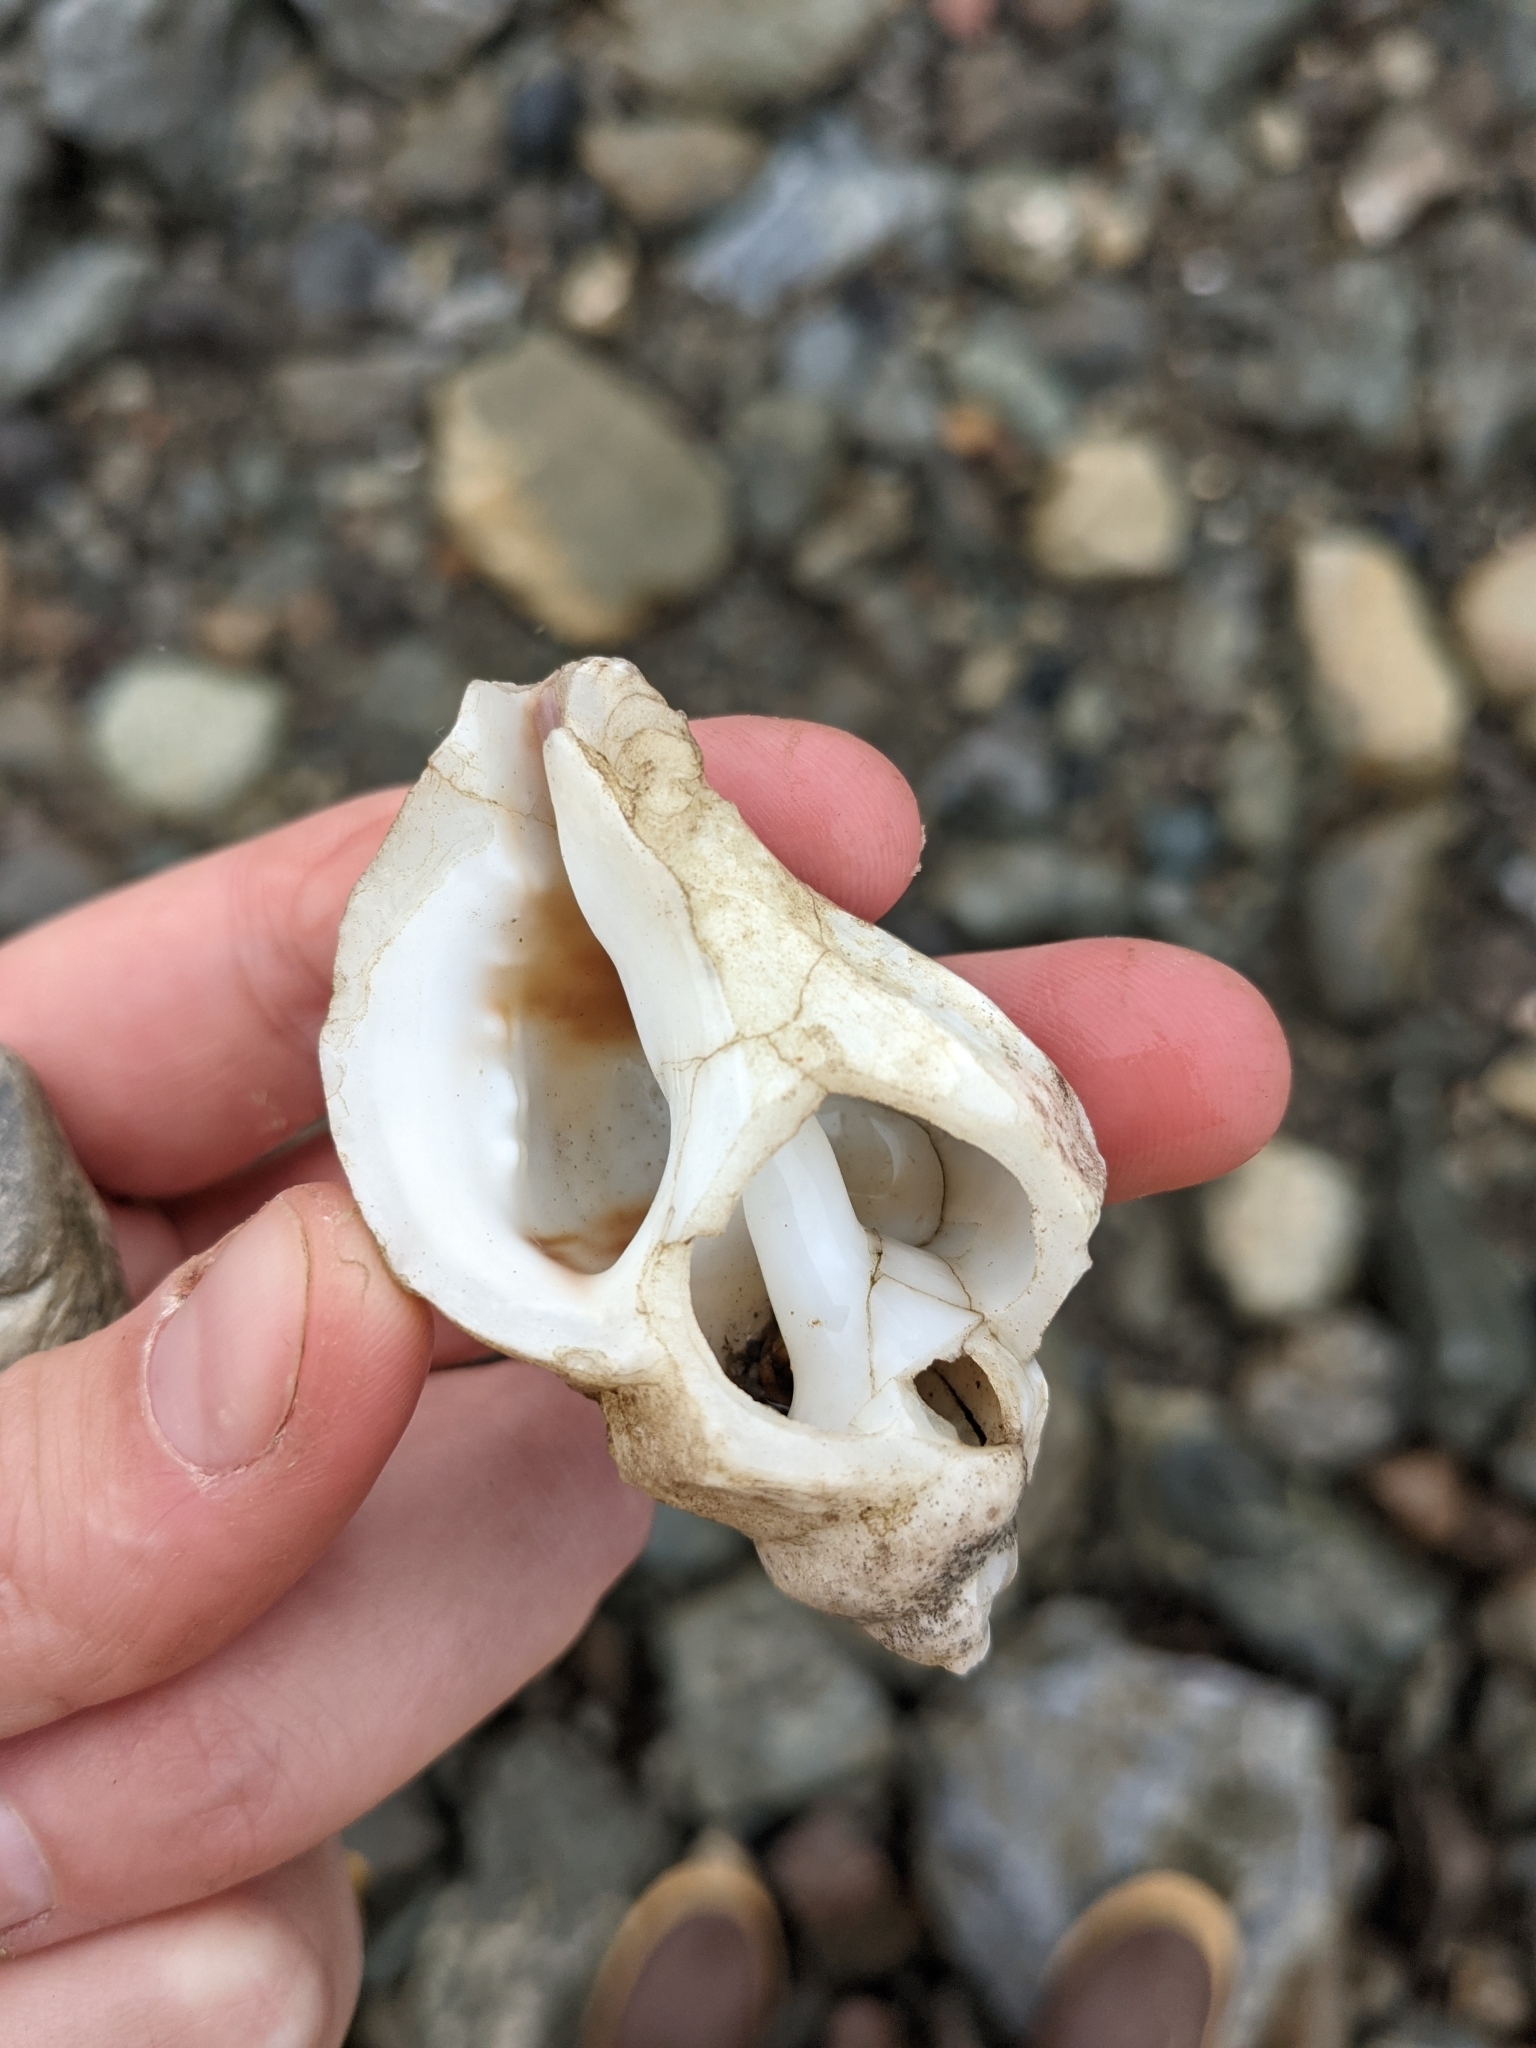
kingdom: Animalia
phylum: Mollusca
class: Gastropoda
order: Neogastropoda
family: Muricidae
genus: Nucella
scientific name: Nucella lamellosa
